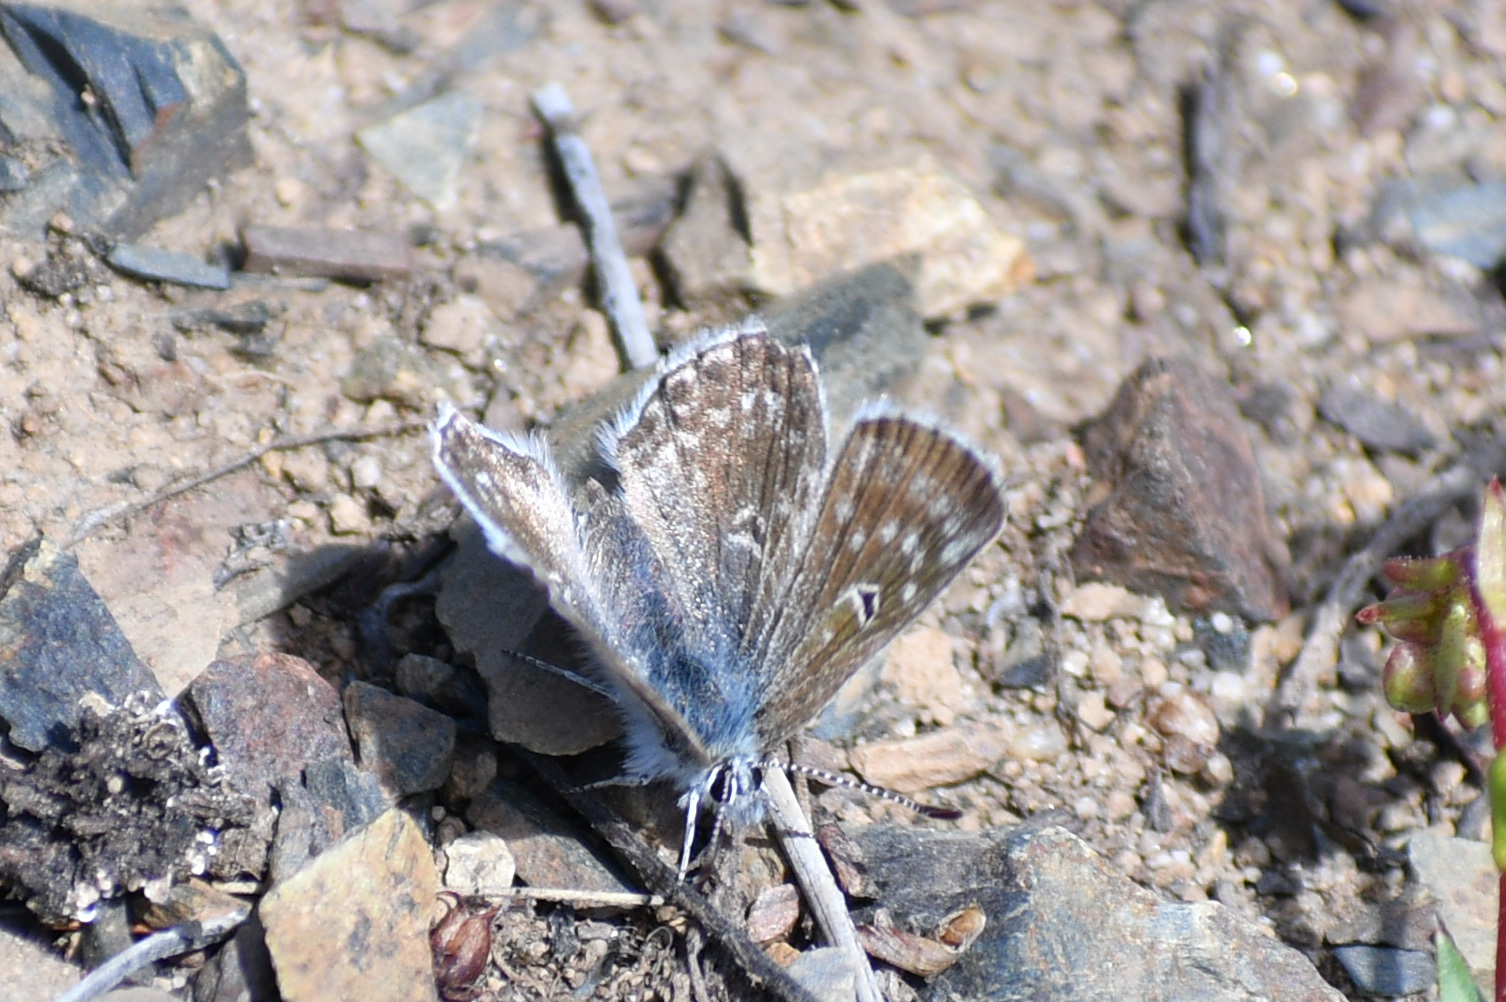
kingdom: Animalia
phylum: Arthropoda
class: Insecta
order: Lepidoptera
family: Lycaenidae
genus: Agriades
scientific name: Agriades glandon
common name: Glandon blue
